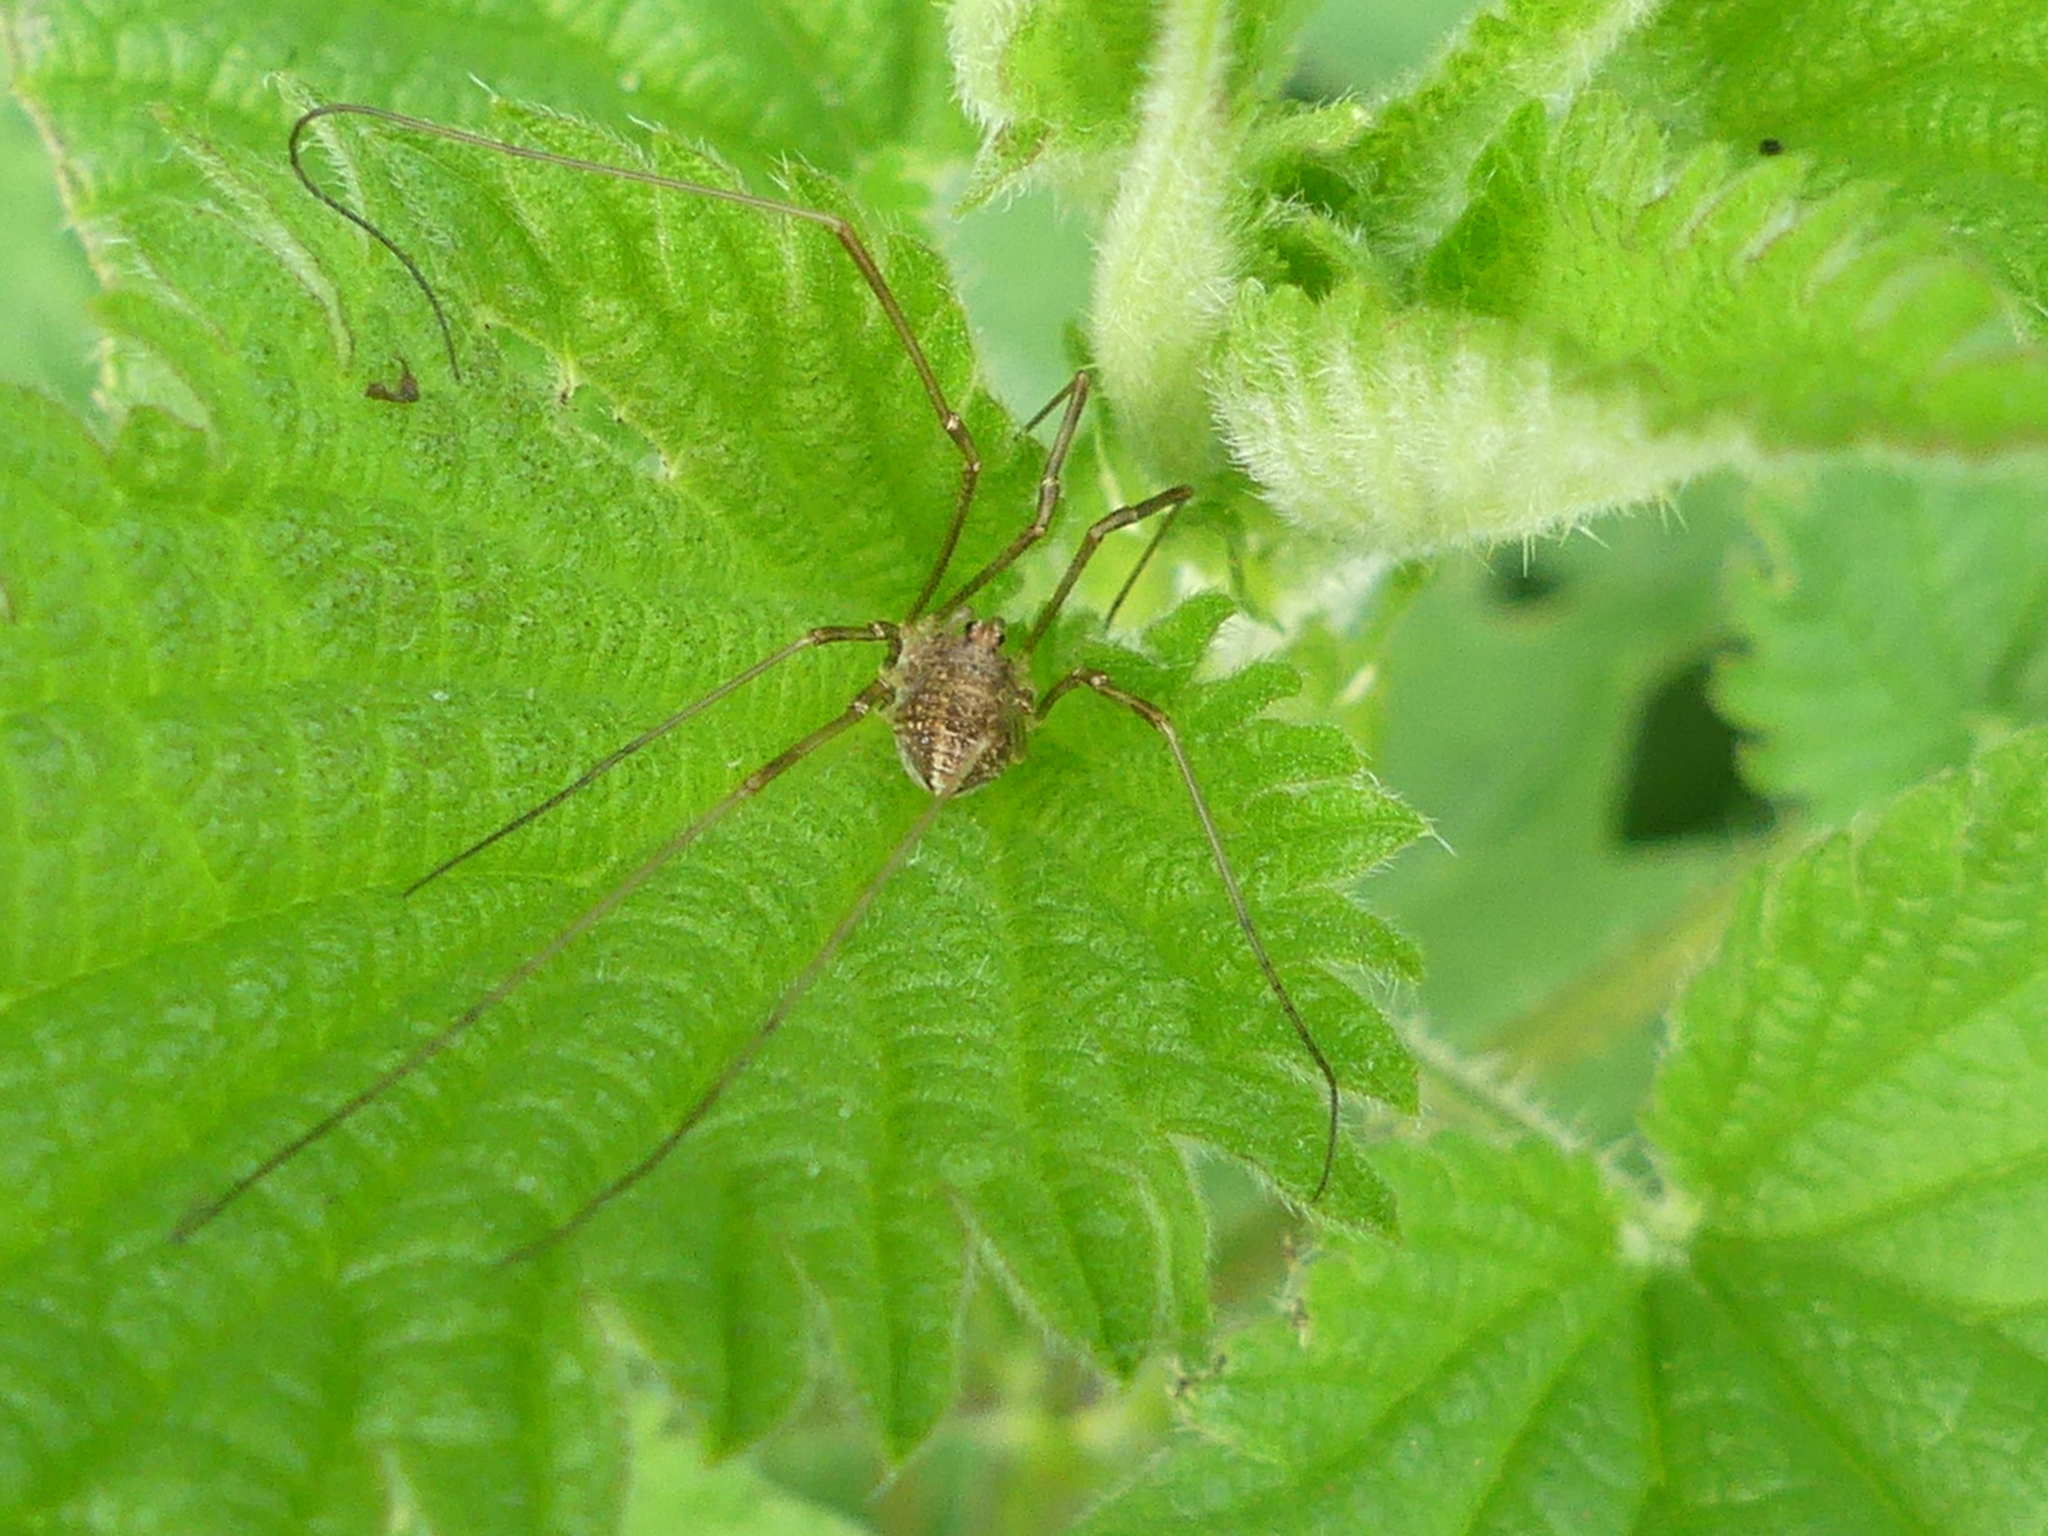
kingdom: Animalia
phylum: Arthropoda
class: Arachnida
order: Opiliones
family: Phalangiidae
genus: Rilaena
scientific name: Rilaena triangularis
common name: Spring harvestman
